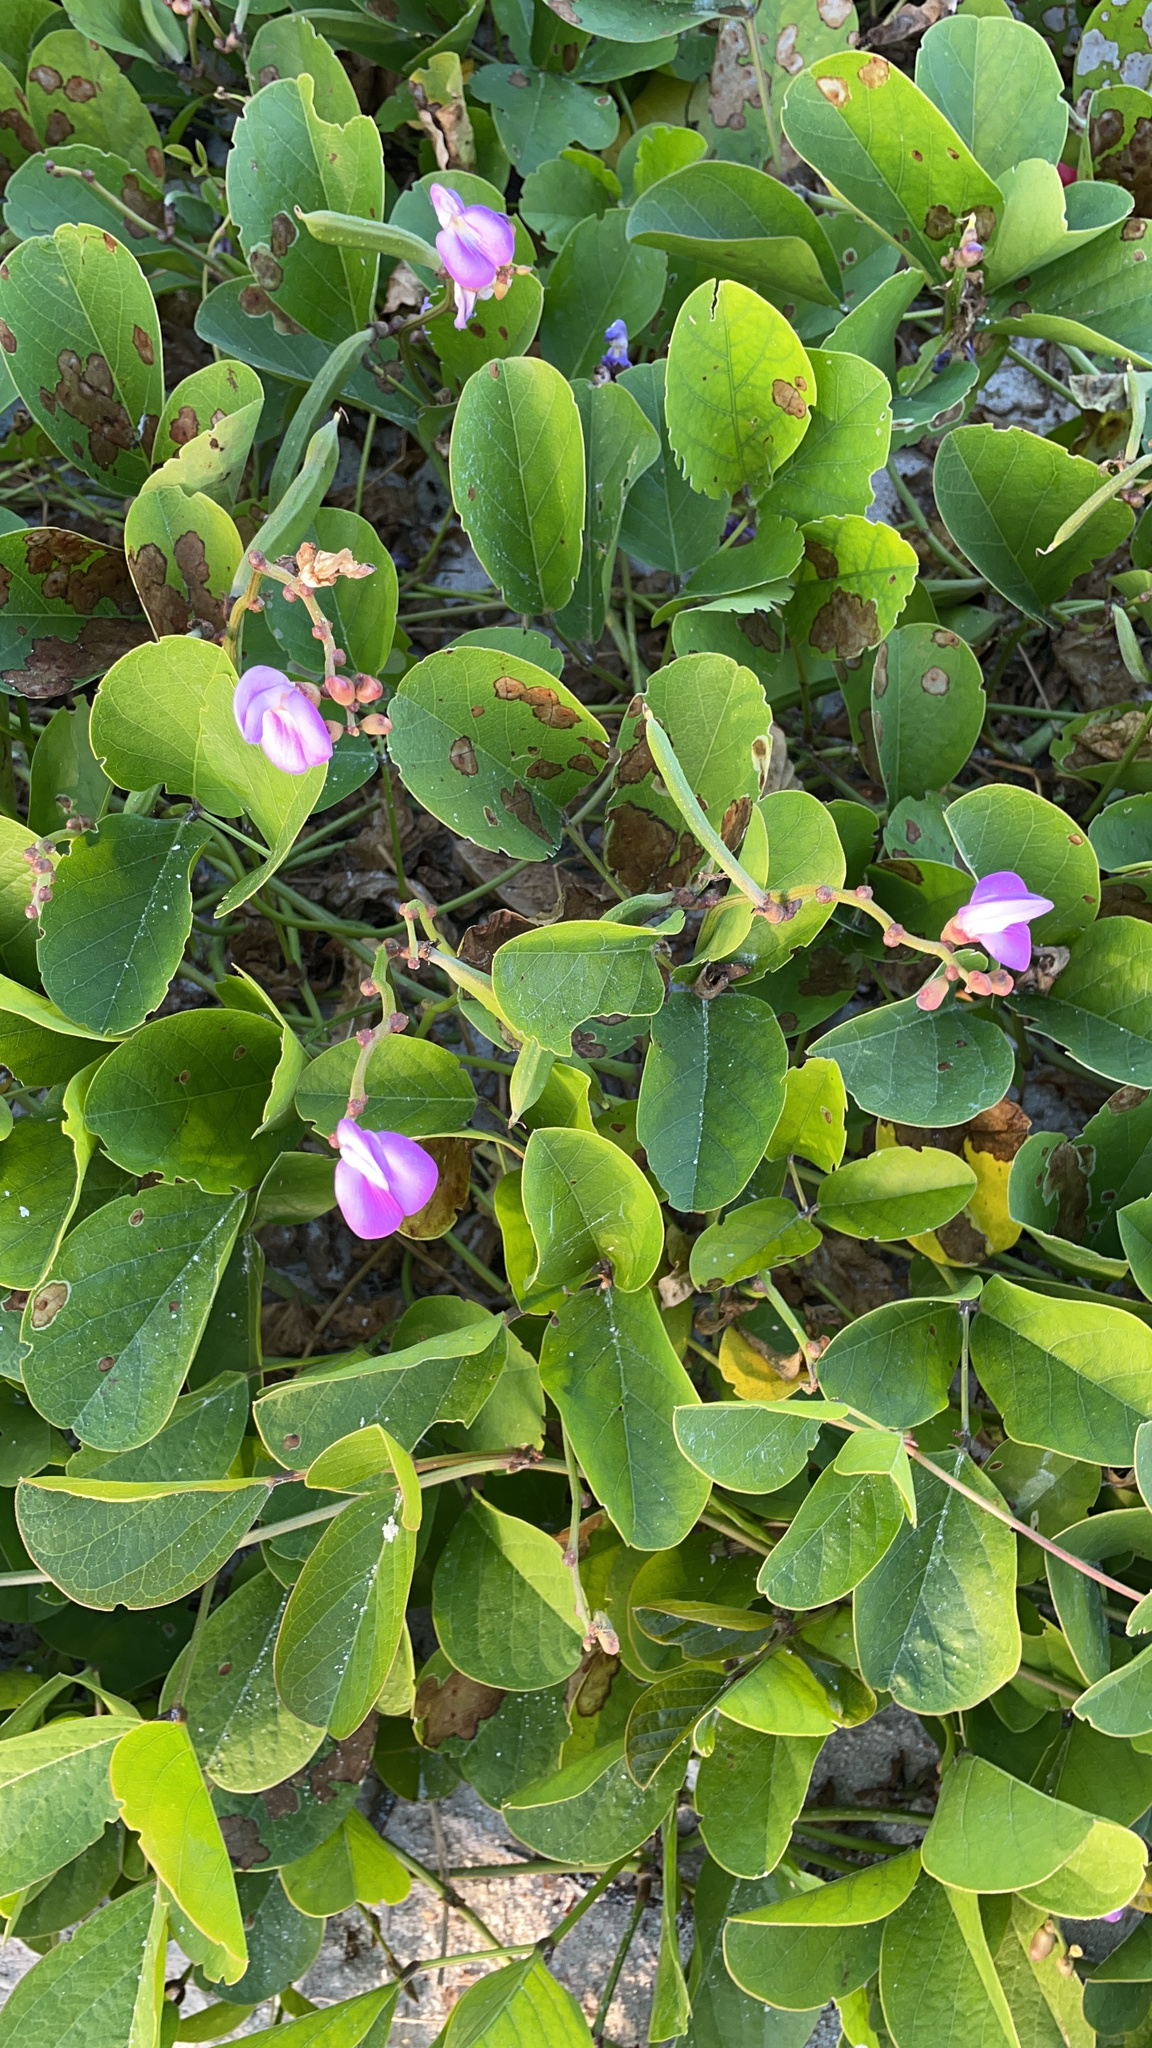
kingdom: Plantae
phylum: Tracheophyta
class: Magnoliopsida
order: Fabales
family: Fabaceae
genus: Canavalia
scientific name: Canavalia rosea
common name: Beach-bean
